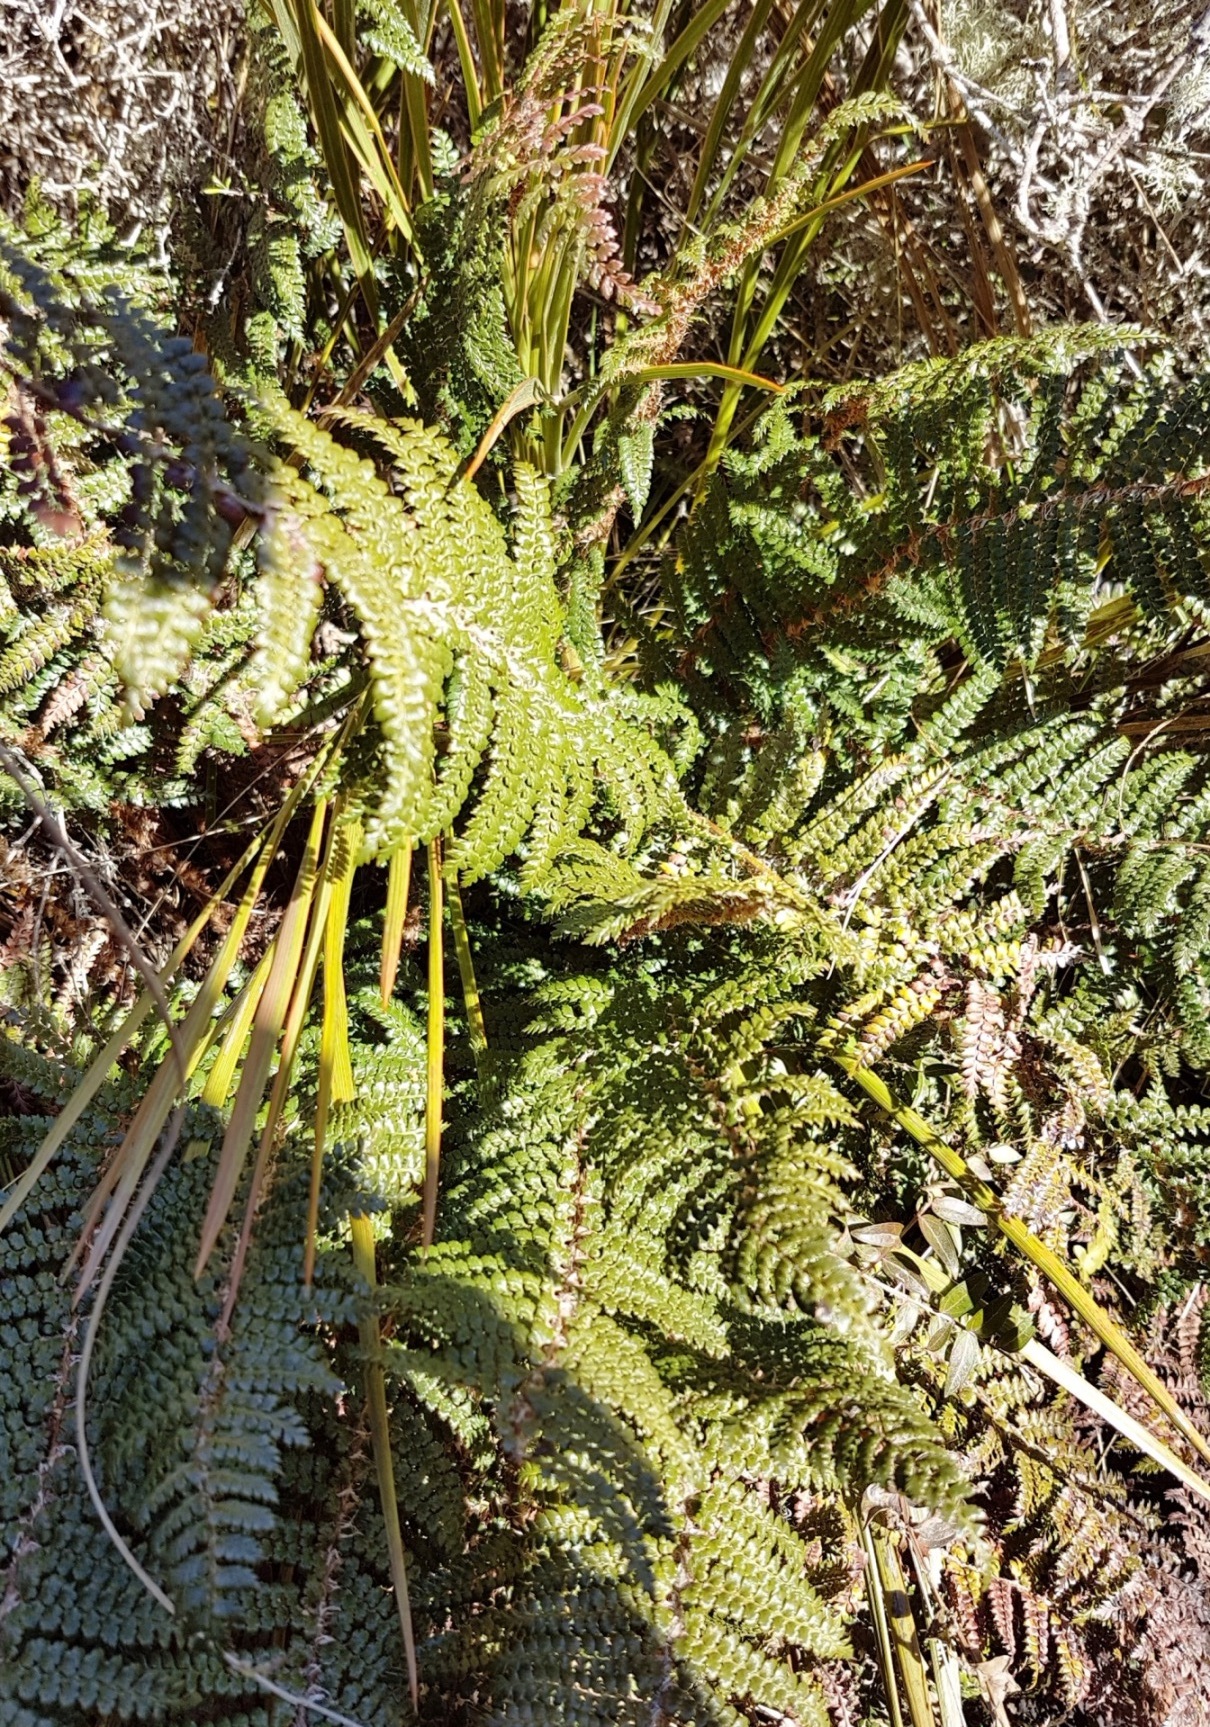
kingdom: Plantae
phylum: Tracheophyta
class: Polypodiopsida
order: Polypodiales
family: Dryopteridaceae
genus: Polystichum
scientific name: Polystichum vestitum
